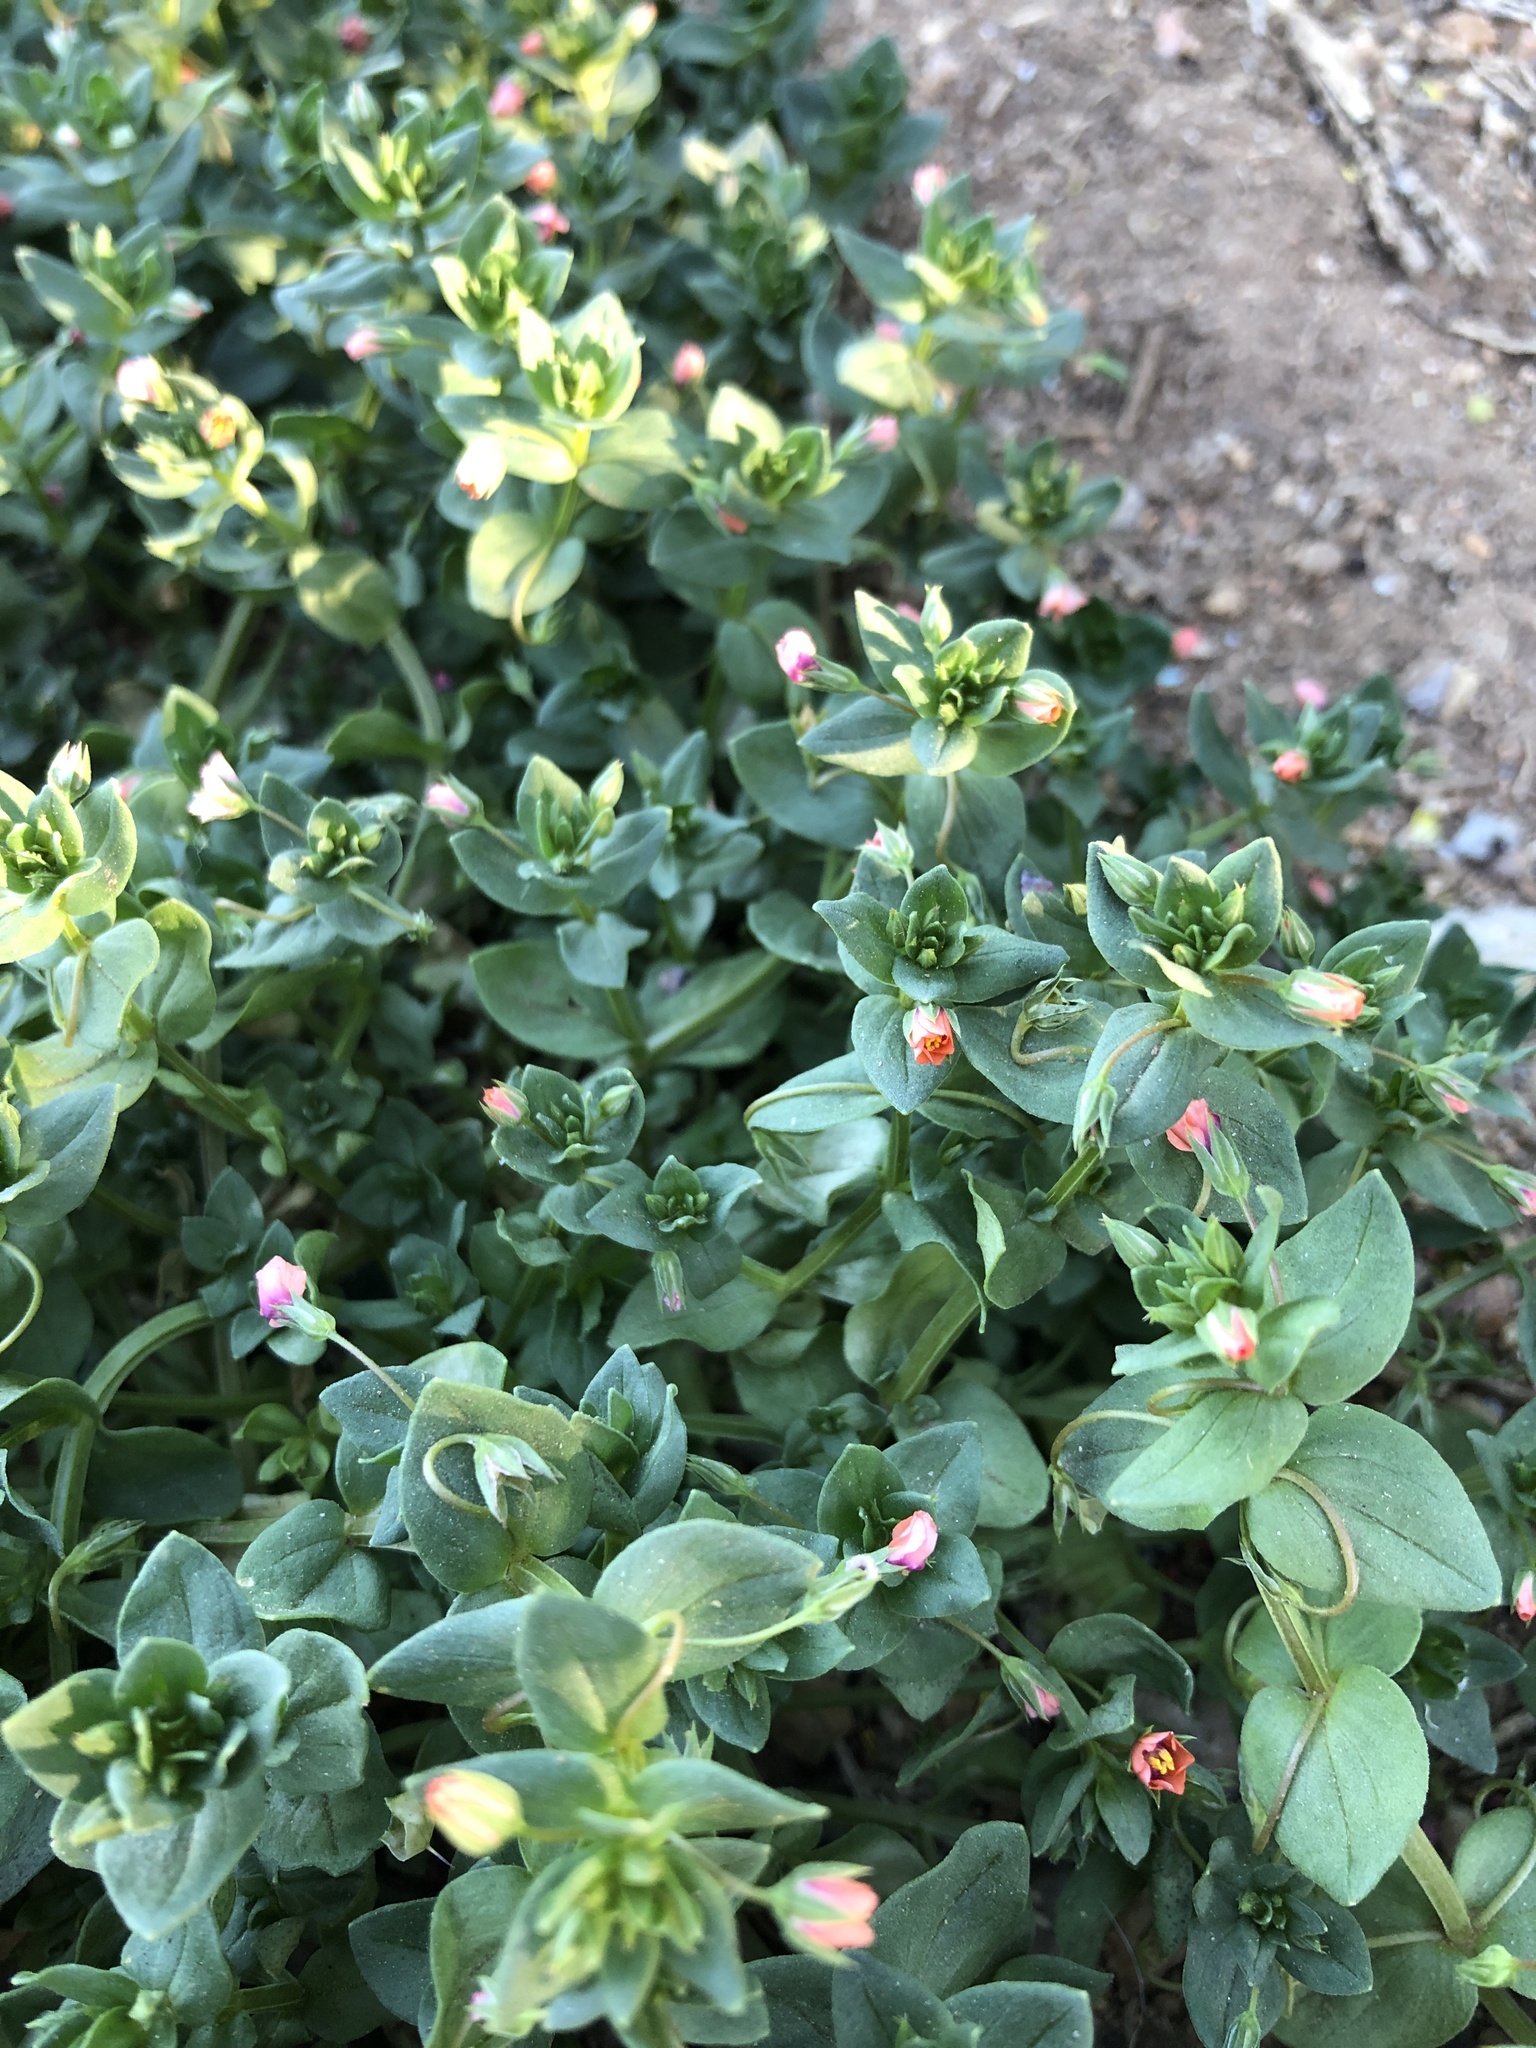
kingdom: Plantae
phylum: Tracheophyta
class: Magnoliopsida
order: Ericales
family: Primulaceae
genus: Lysimachia
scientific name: Lysimachia arvensis
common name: Scarlet pimpernel
